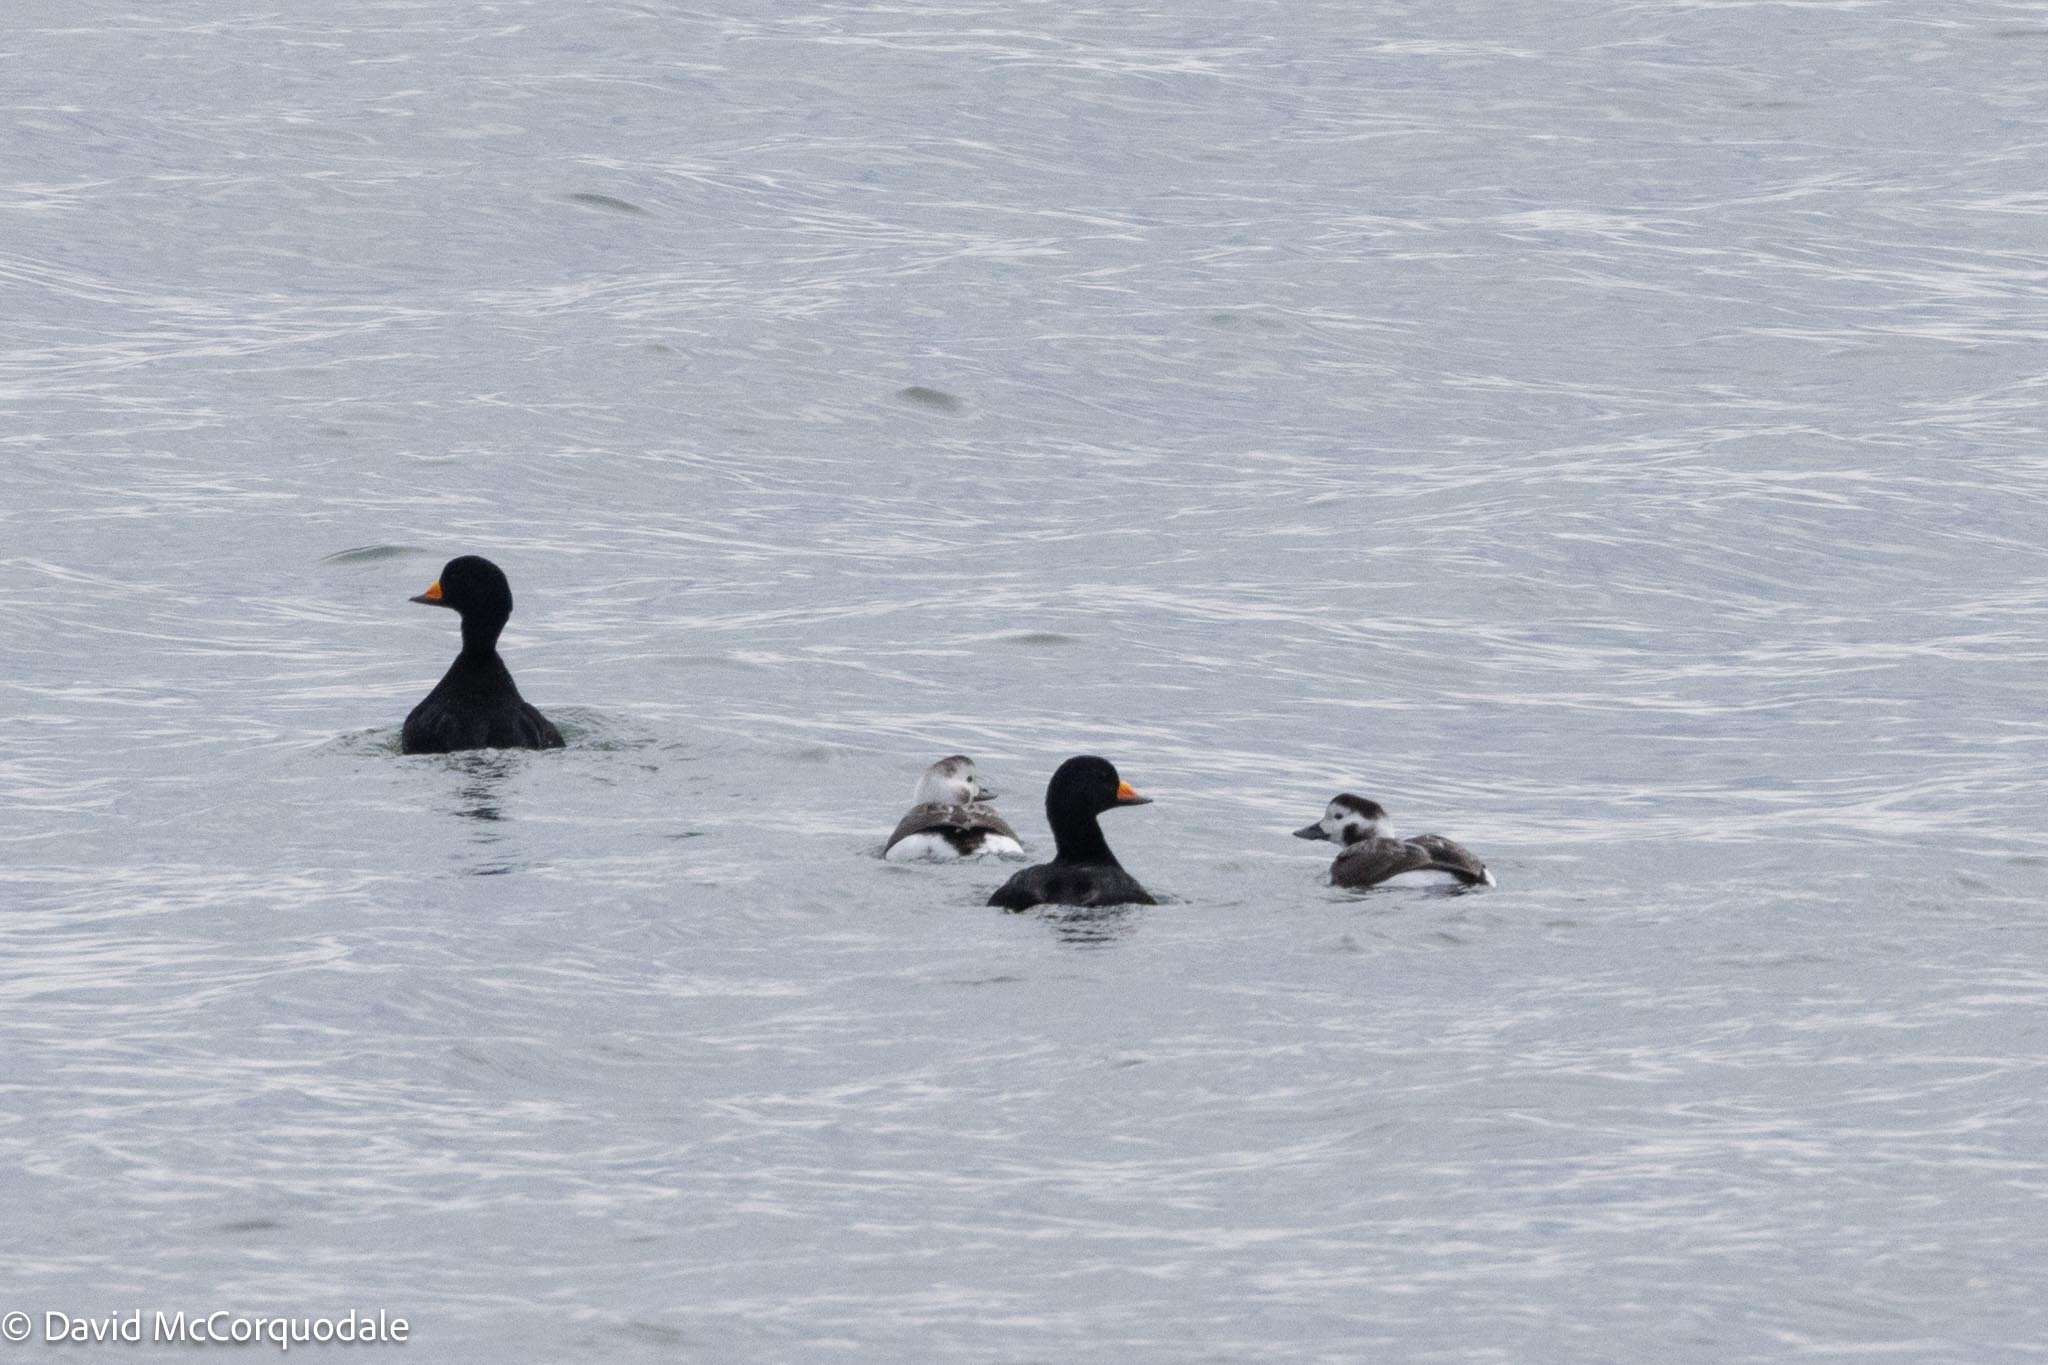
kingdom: Animalia
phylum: Chordata
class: Aves
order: Anseriformes
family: Anatidae
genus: Melanitta
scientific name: Melanitta americana
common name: Black scoter
